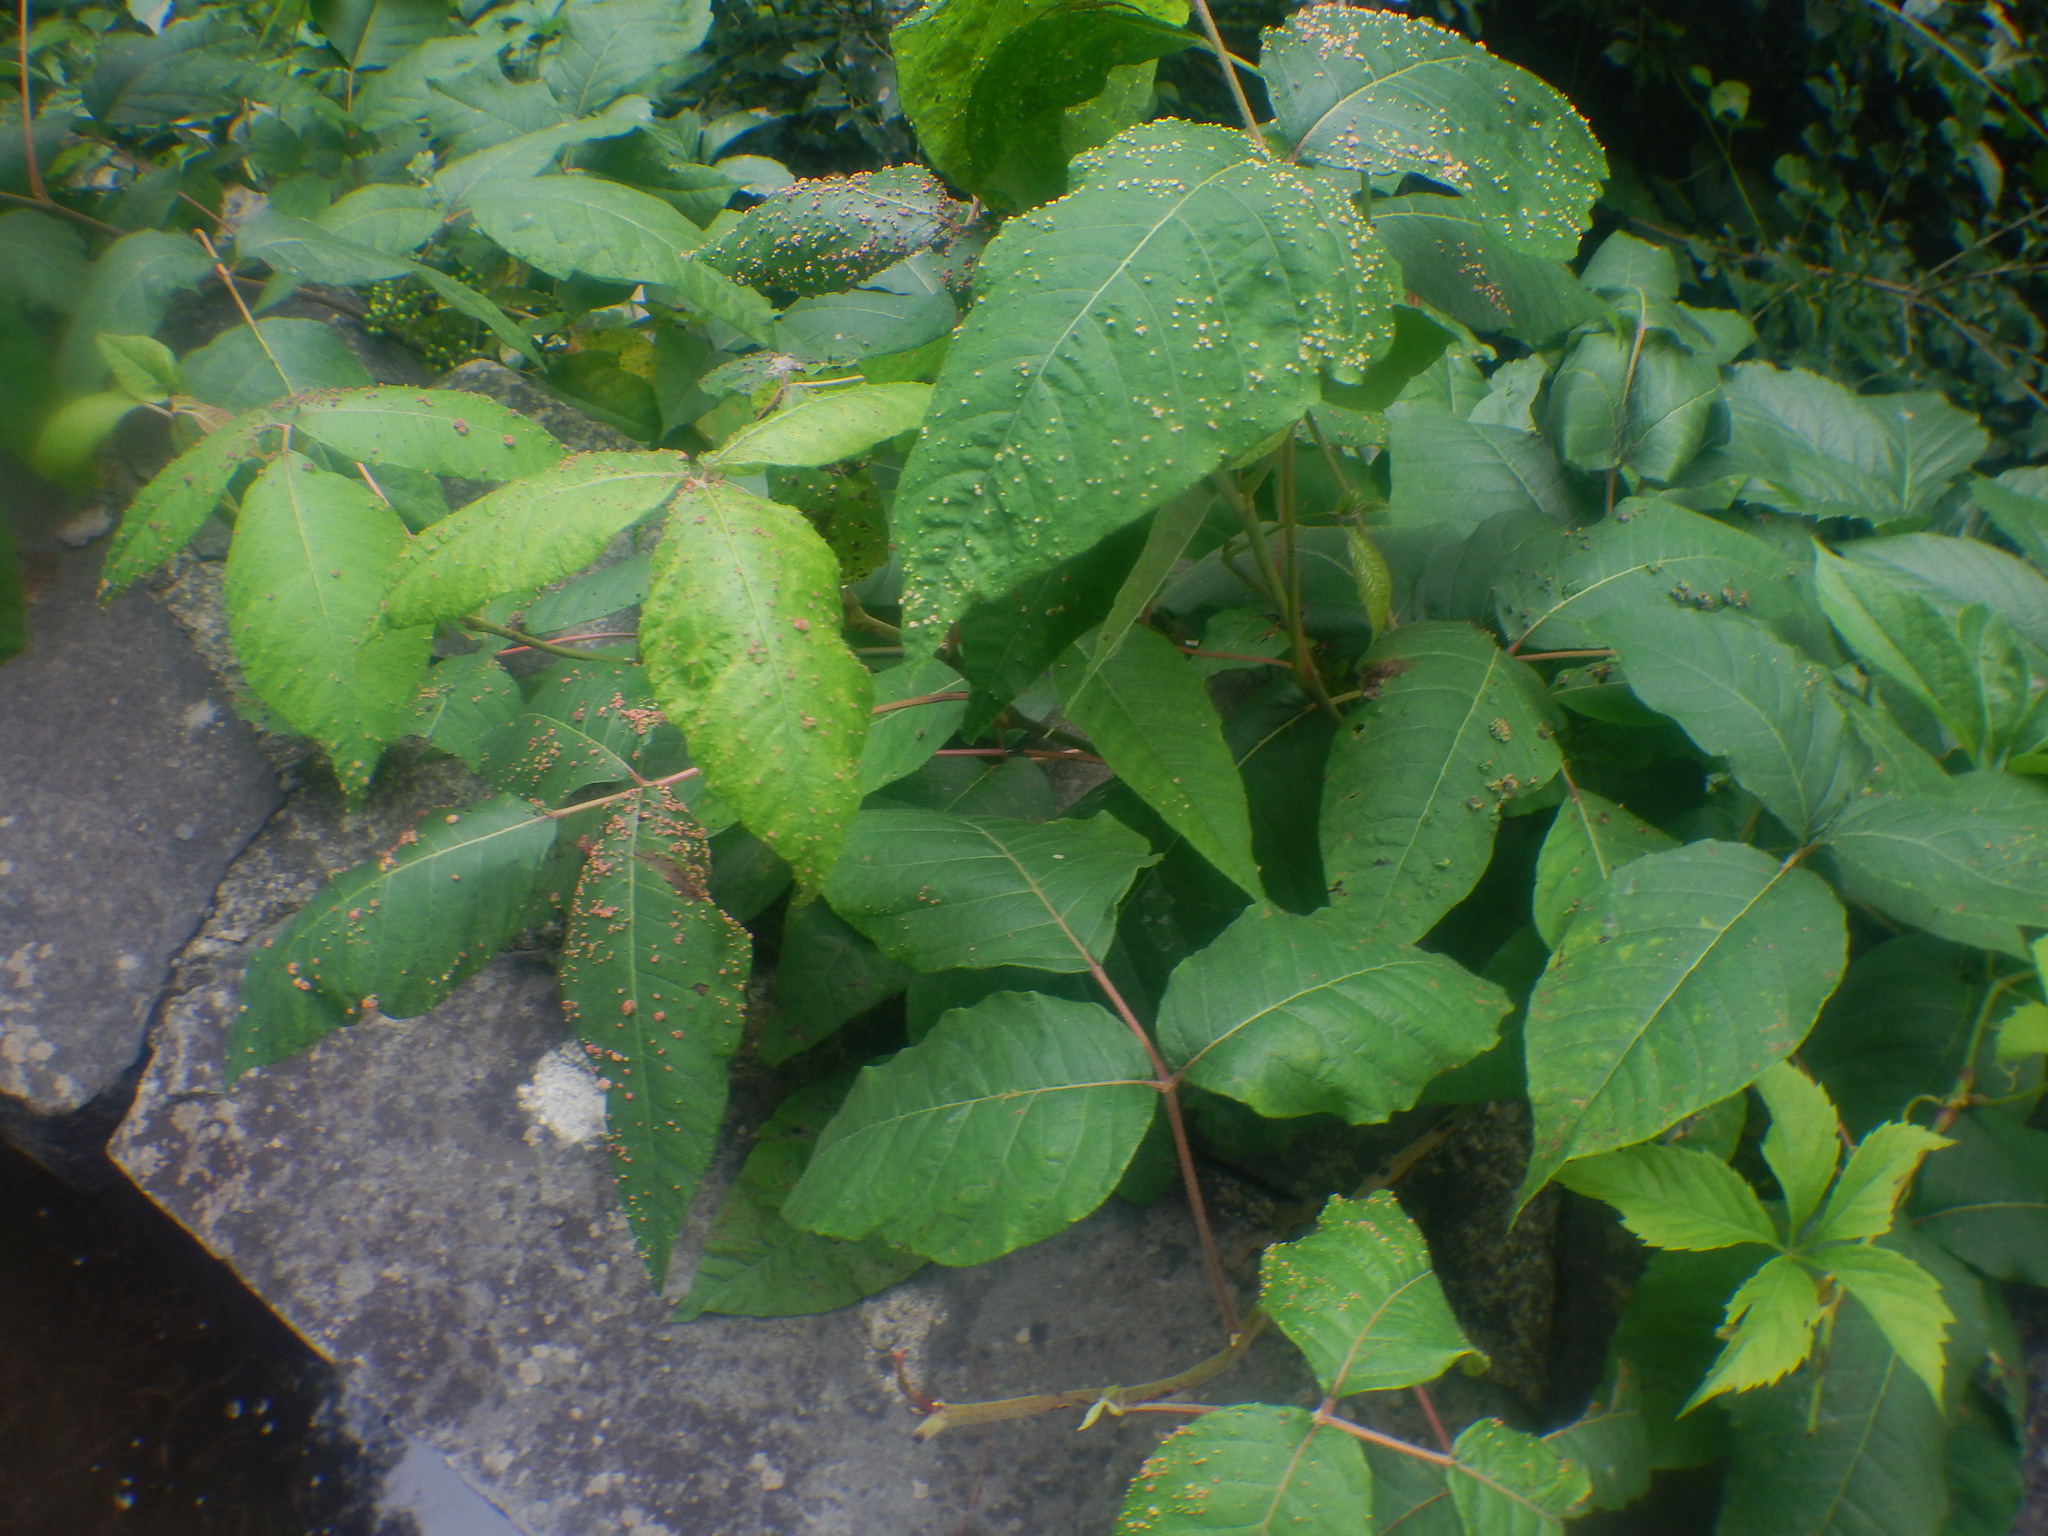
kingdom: Animalia
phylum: Arthropoda
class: Arachnida
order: Trombidiformes
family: Eriophyidae
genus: Aculops
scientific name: Aculops
